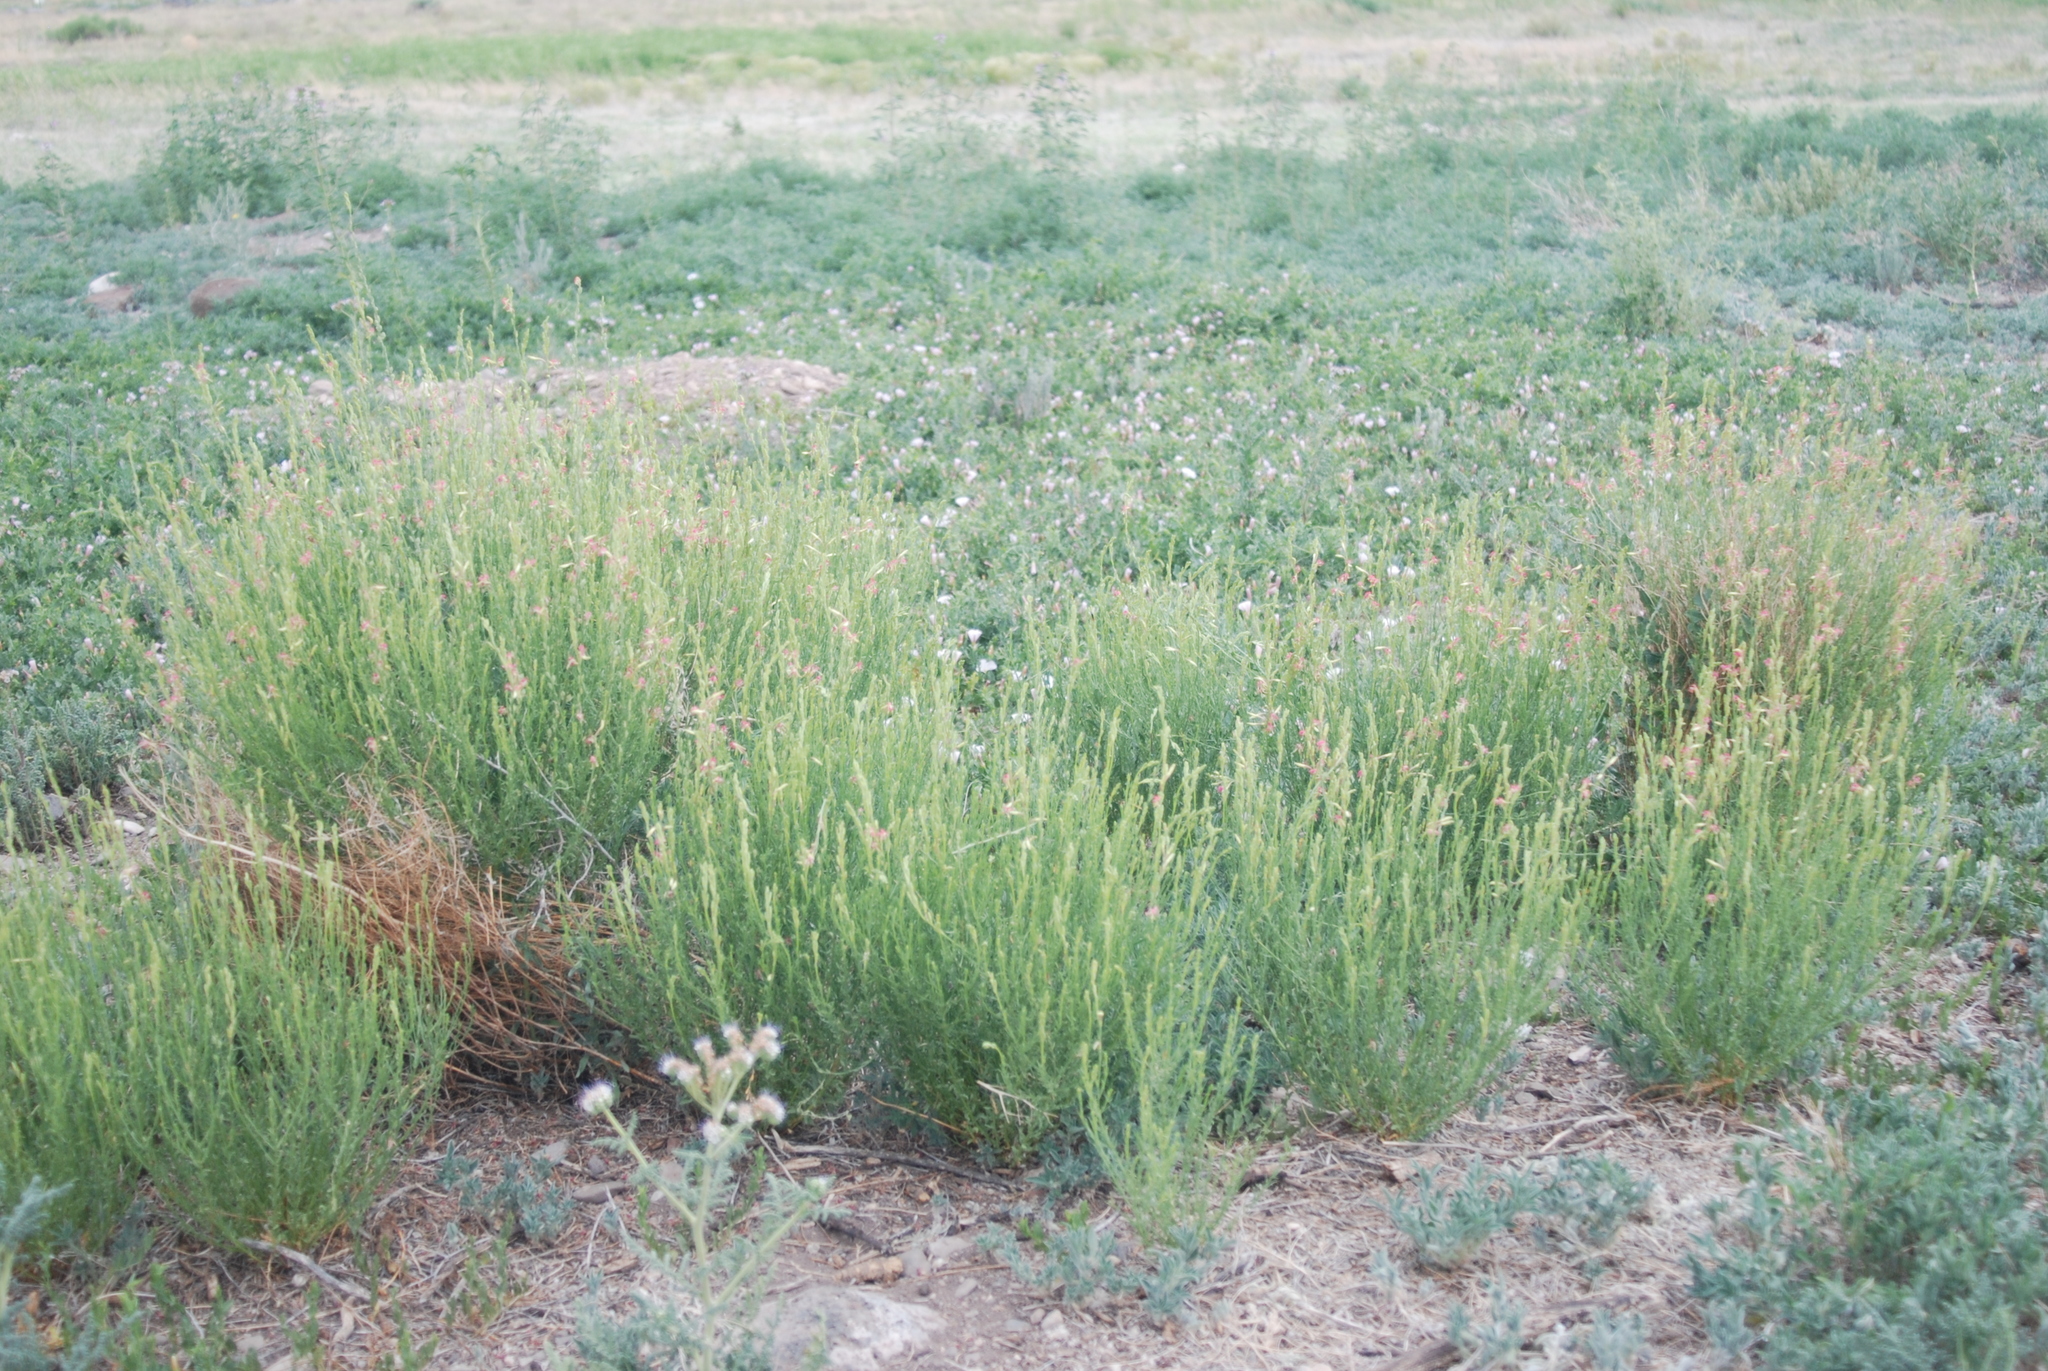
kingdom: Plantae
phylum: Tracheophyta
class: Magnoliopsida
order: Myrtales
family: Onagraceae
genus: Oenothera
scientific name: Oenothera suffrutescens
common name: Scarlet beeblossom
